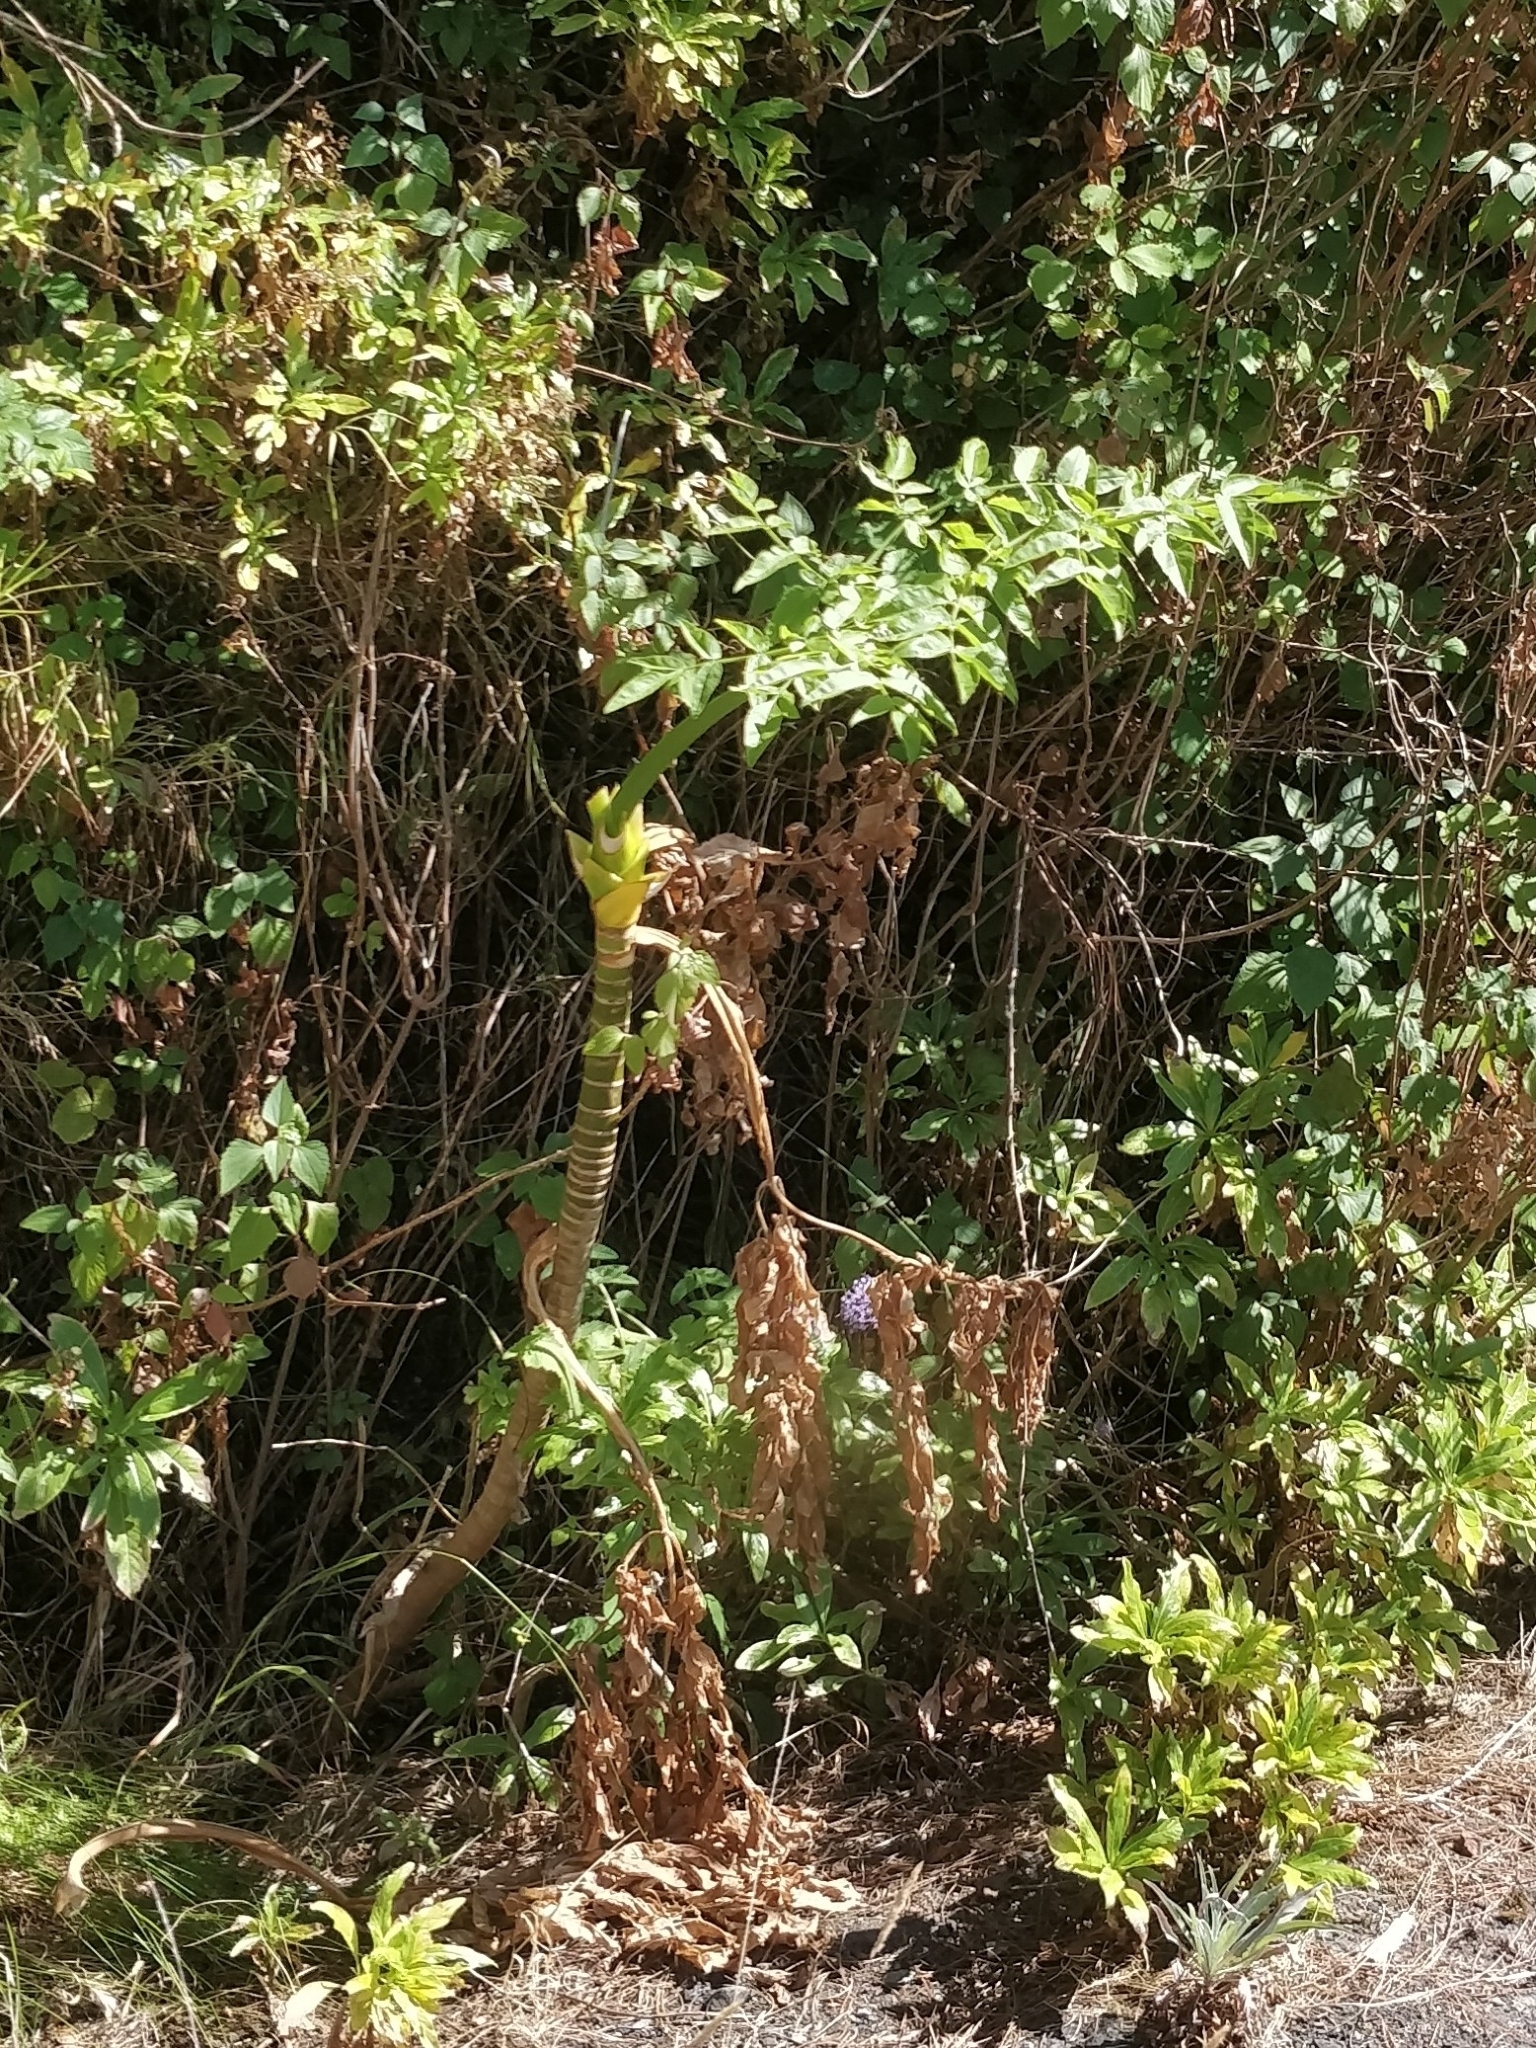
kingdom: Plantae
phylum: Tracheophyta
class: Magnoliopsida
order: Apiales
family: Apiaceae
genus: Daucus
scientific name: Daucus decipiens
